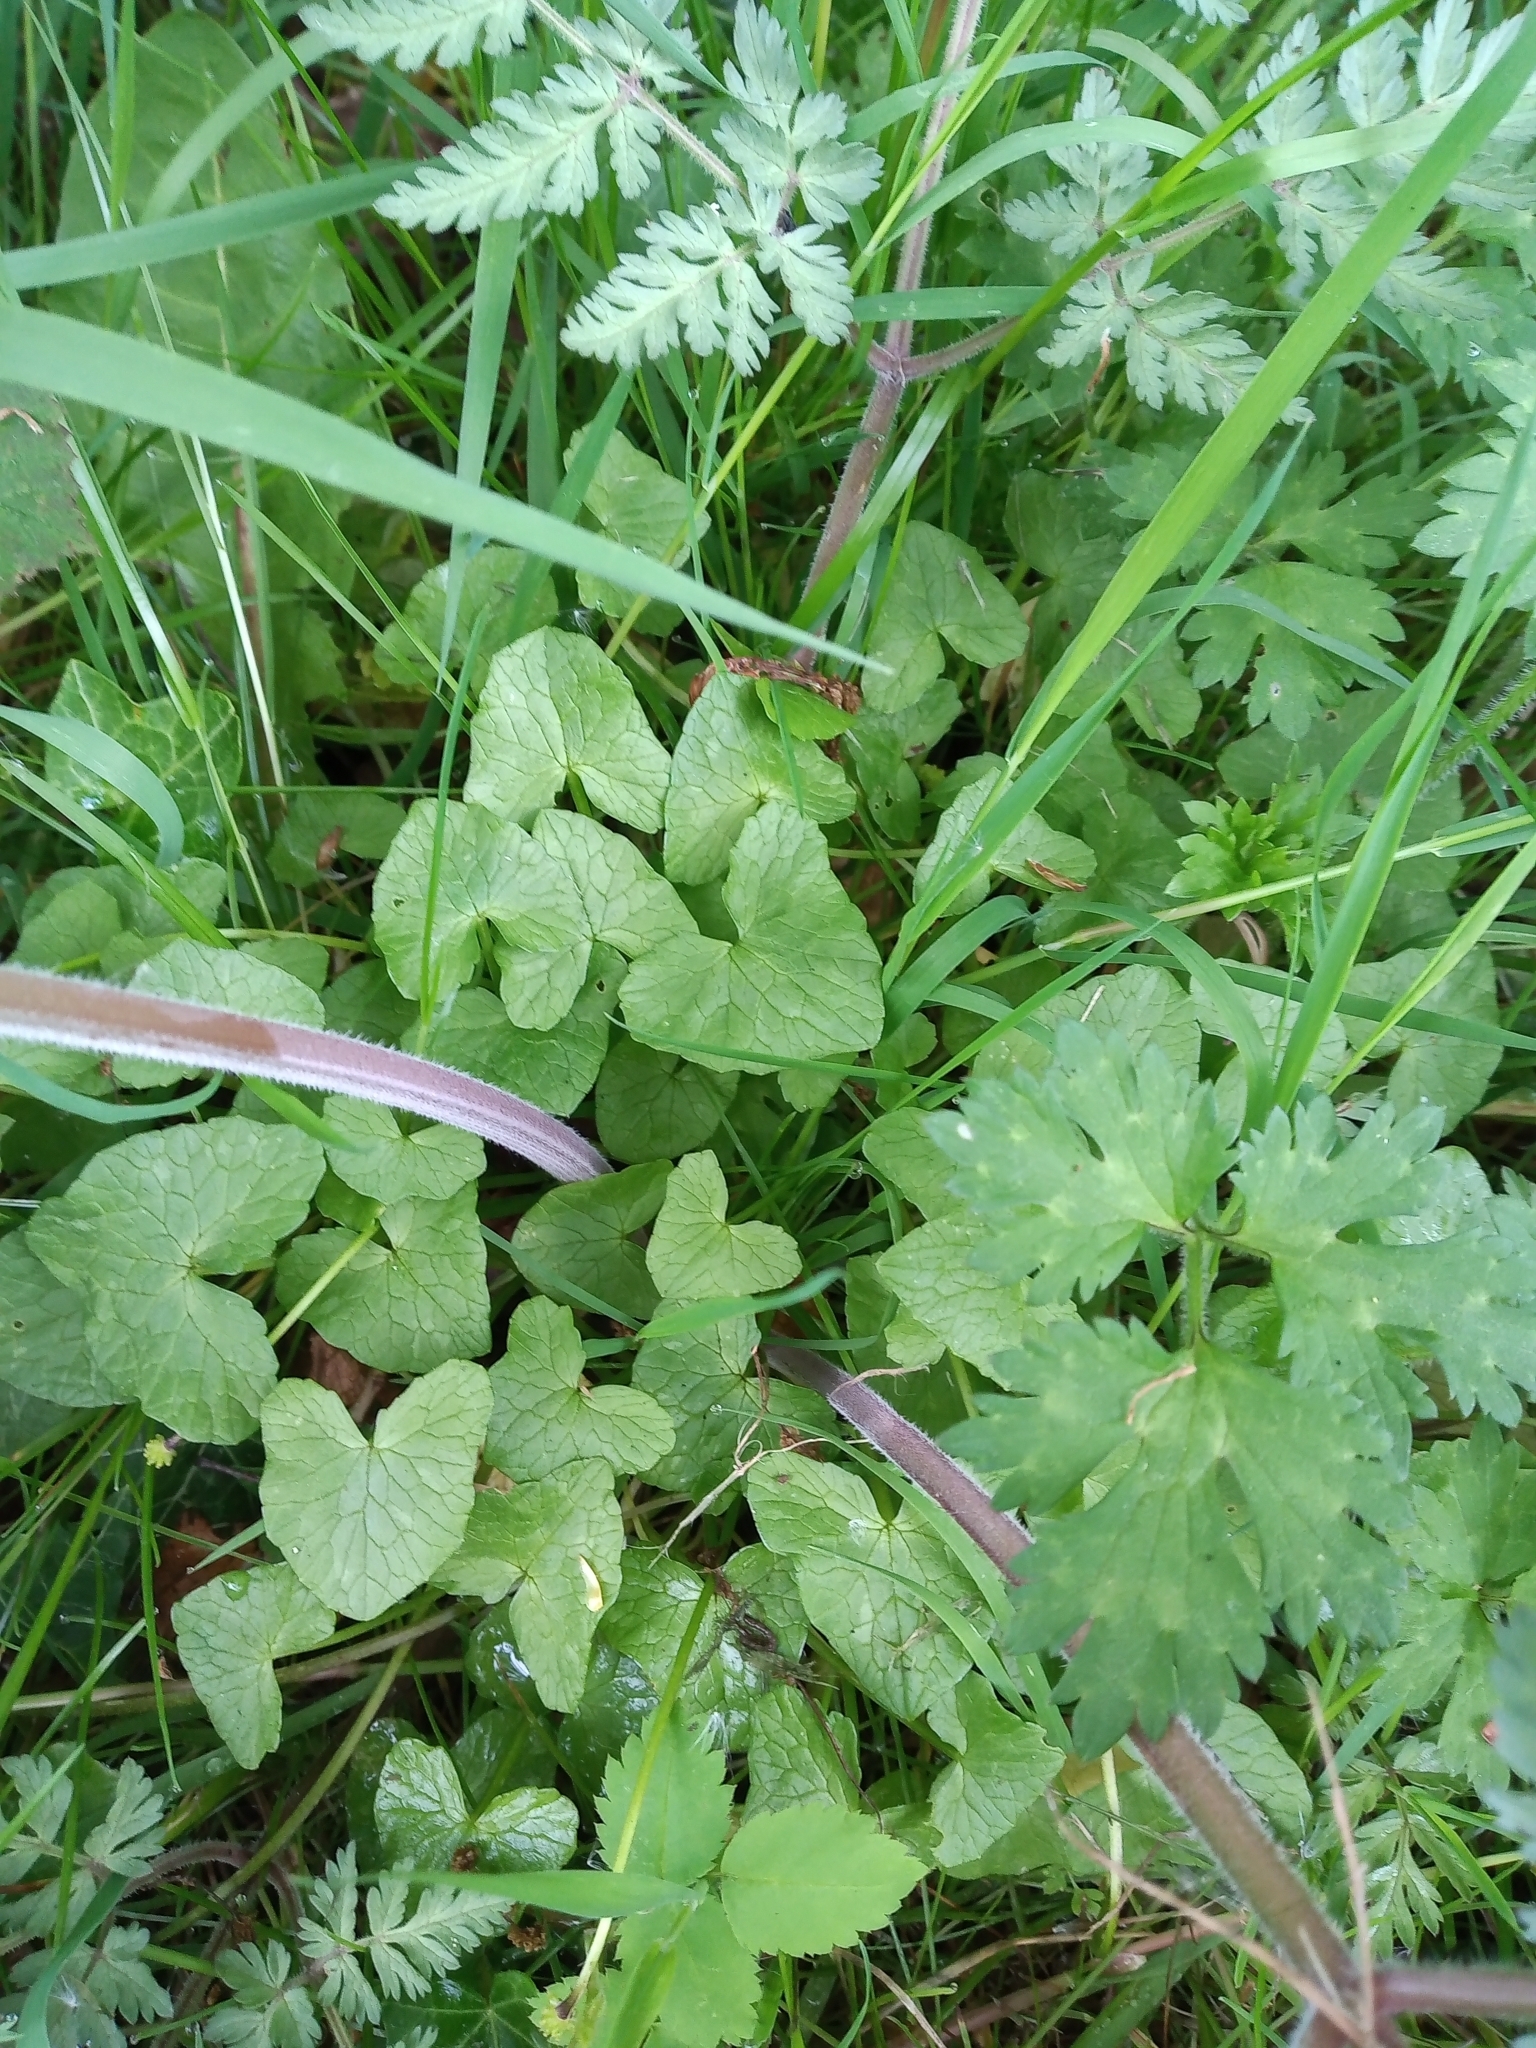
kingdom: Plantae
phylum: Tracheophyta
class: Magnoliopsida
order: Ranunculales
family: Ranunculaceae
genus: Ficaria
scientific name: Ficaria verna
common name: Lesser celandine
